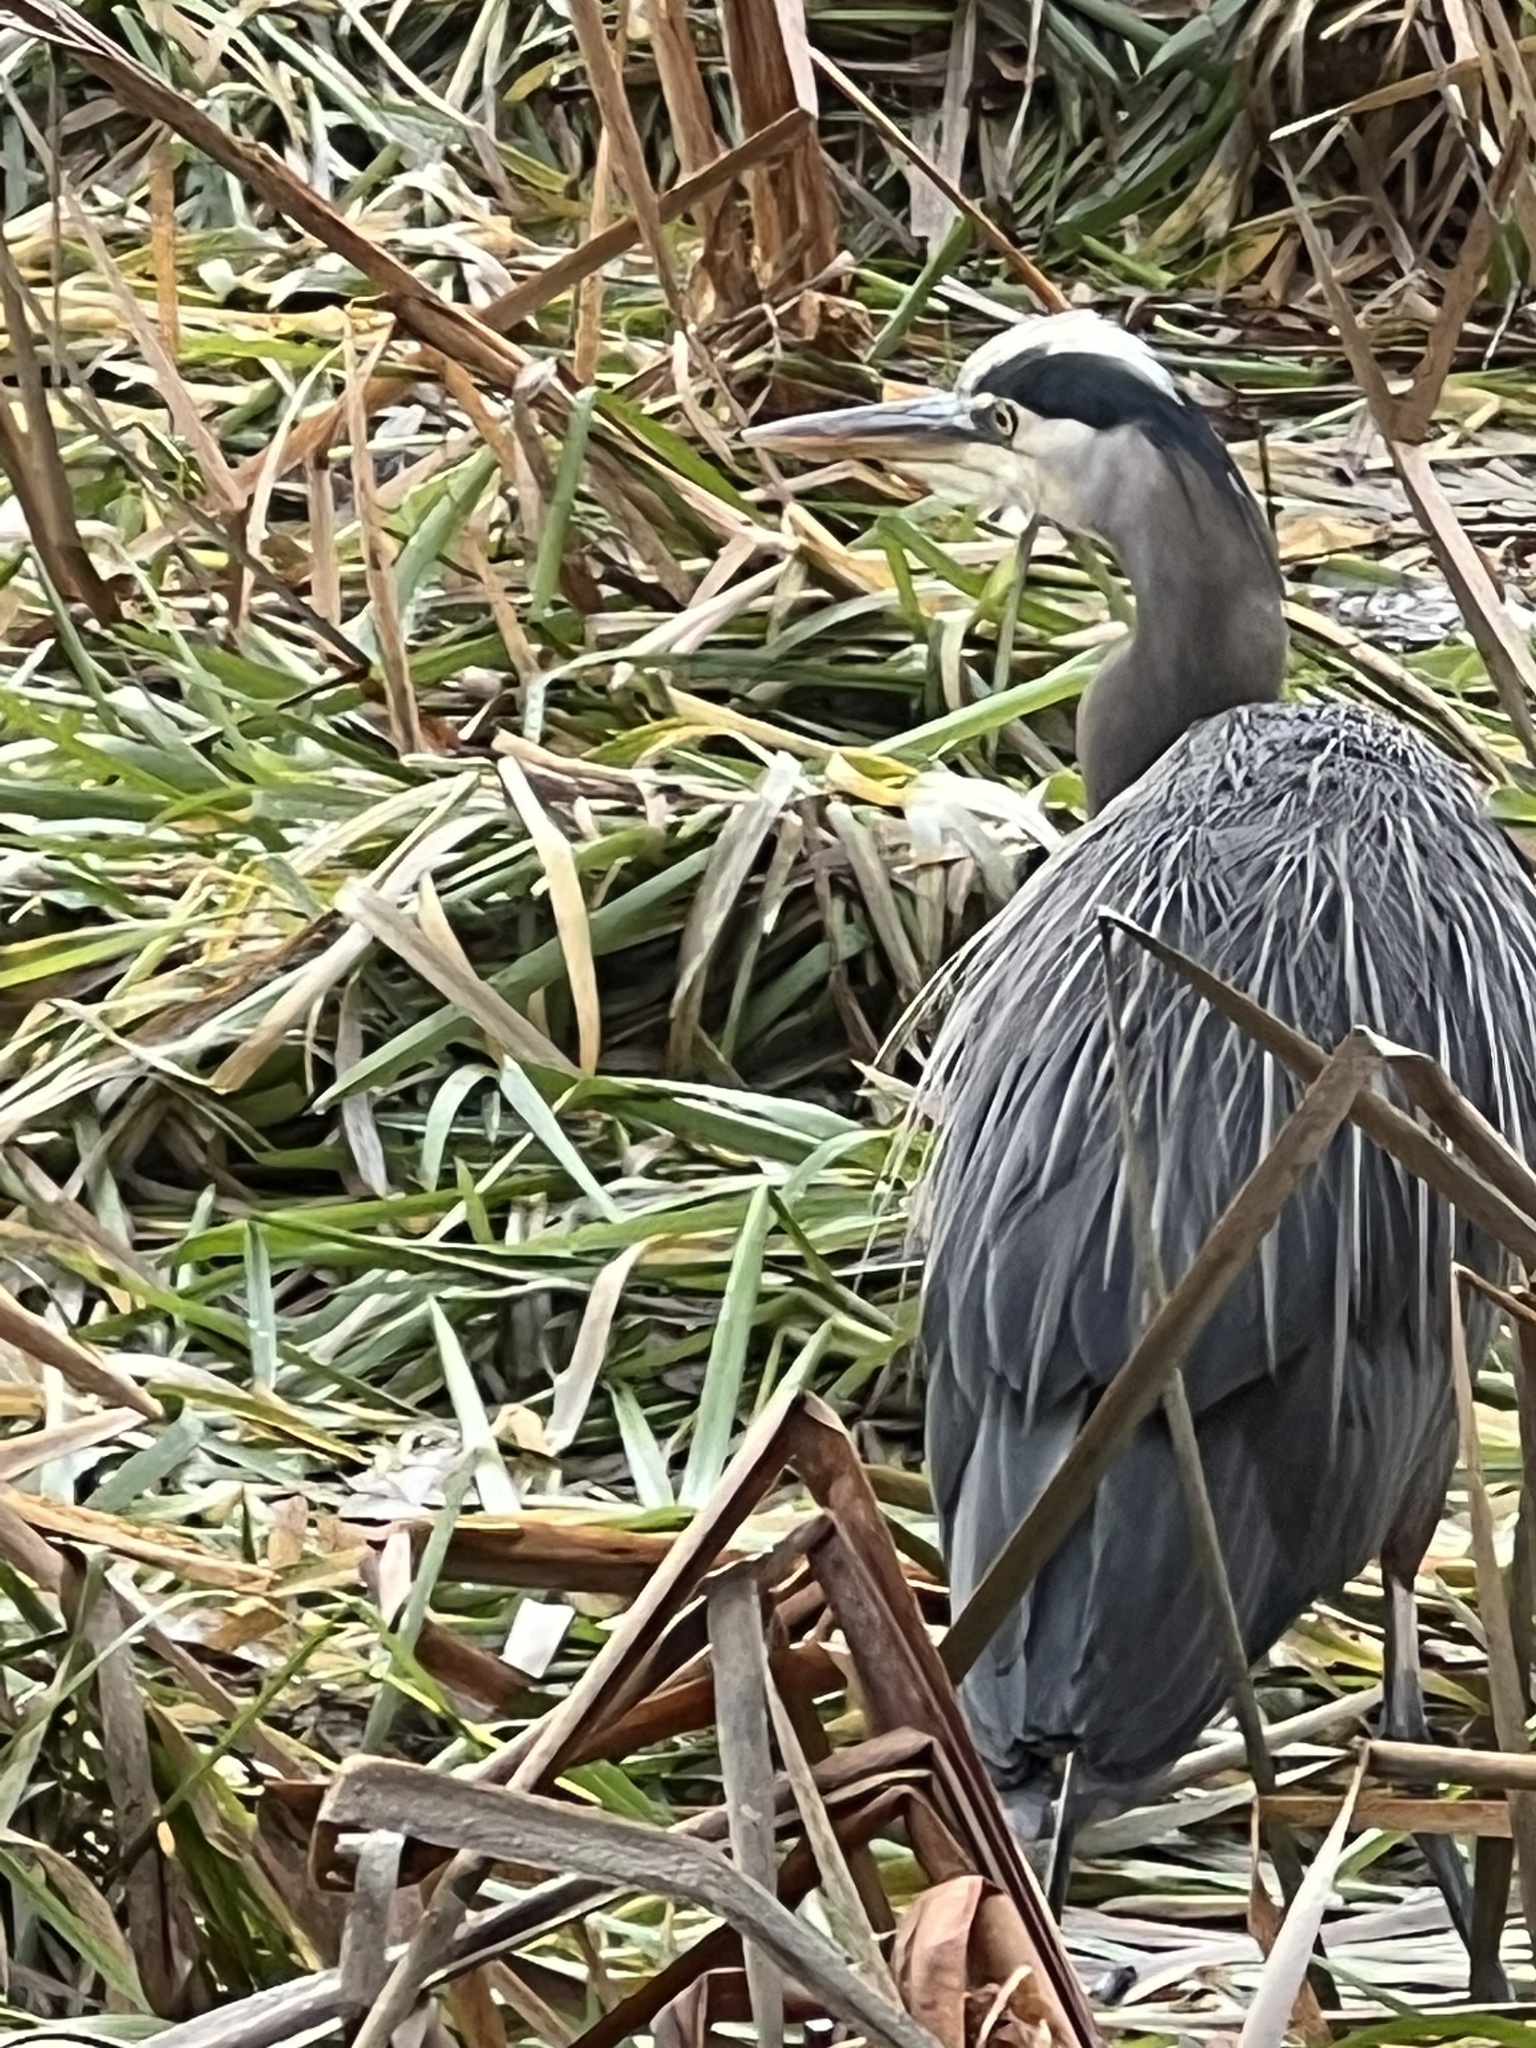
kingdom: Animalia
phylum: Chordata
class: Aves
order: Pelecaniformes
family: Ardeidae
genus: Ardea
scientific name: Ardea herodias
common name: Great blue heron
